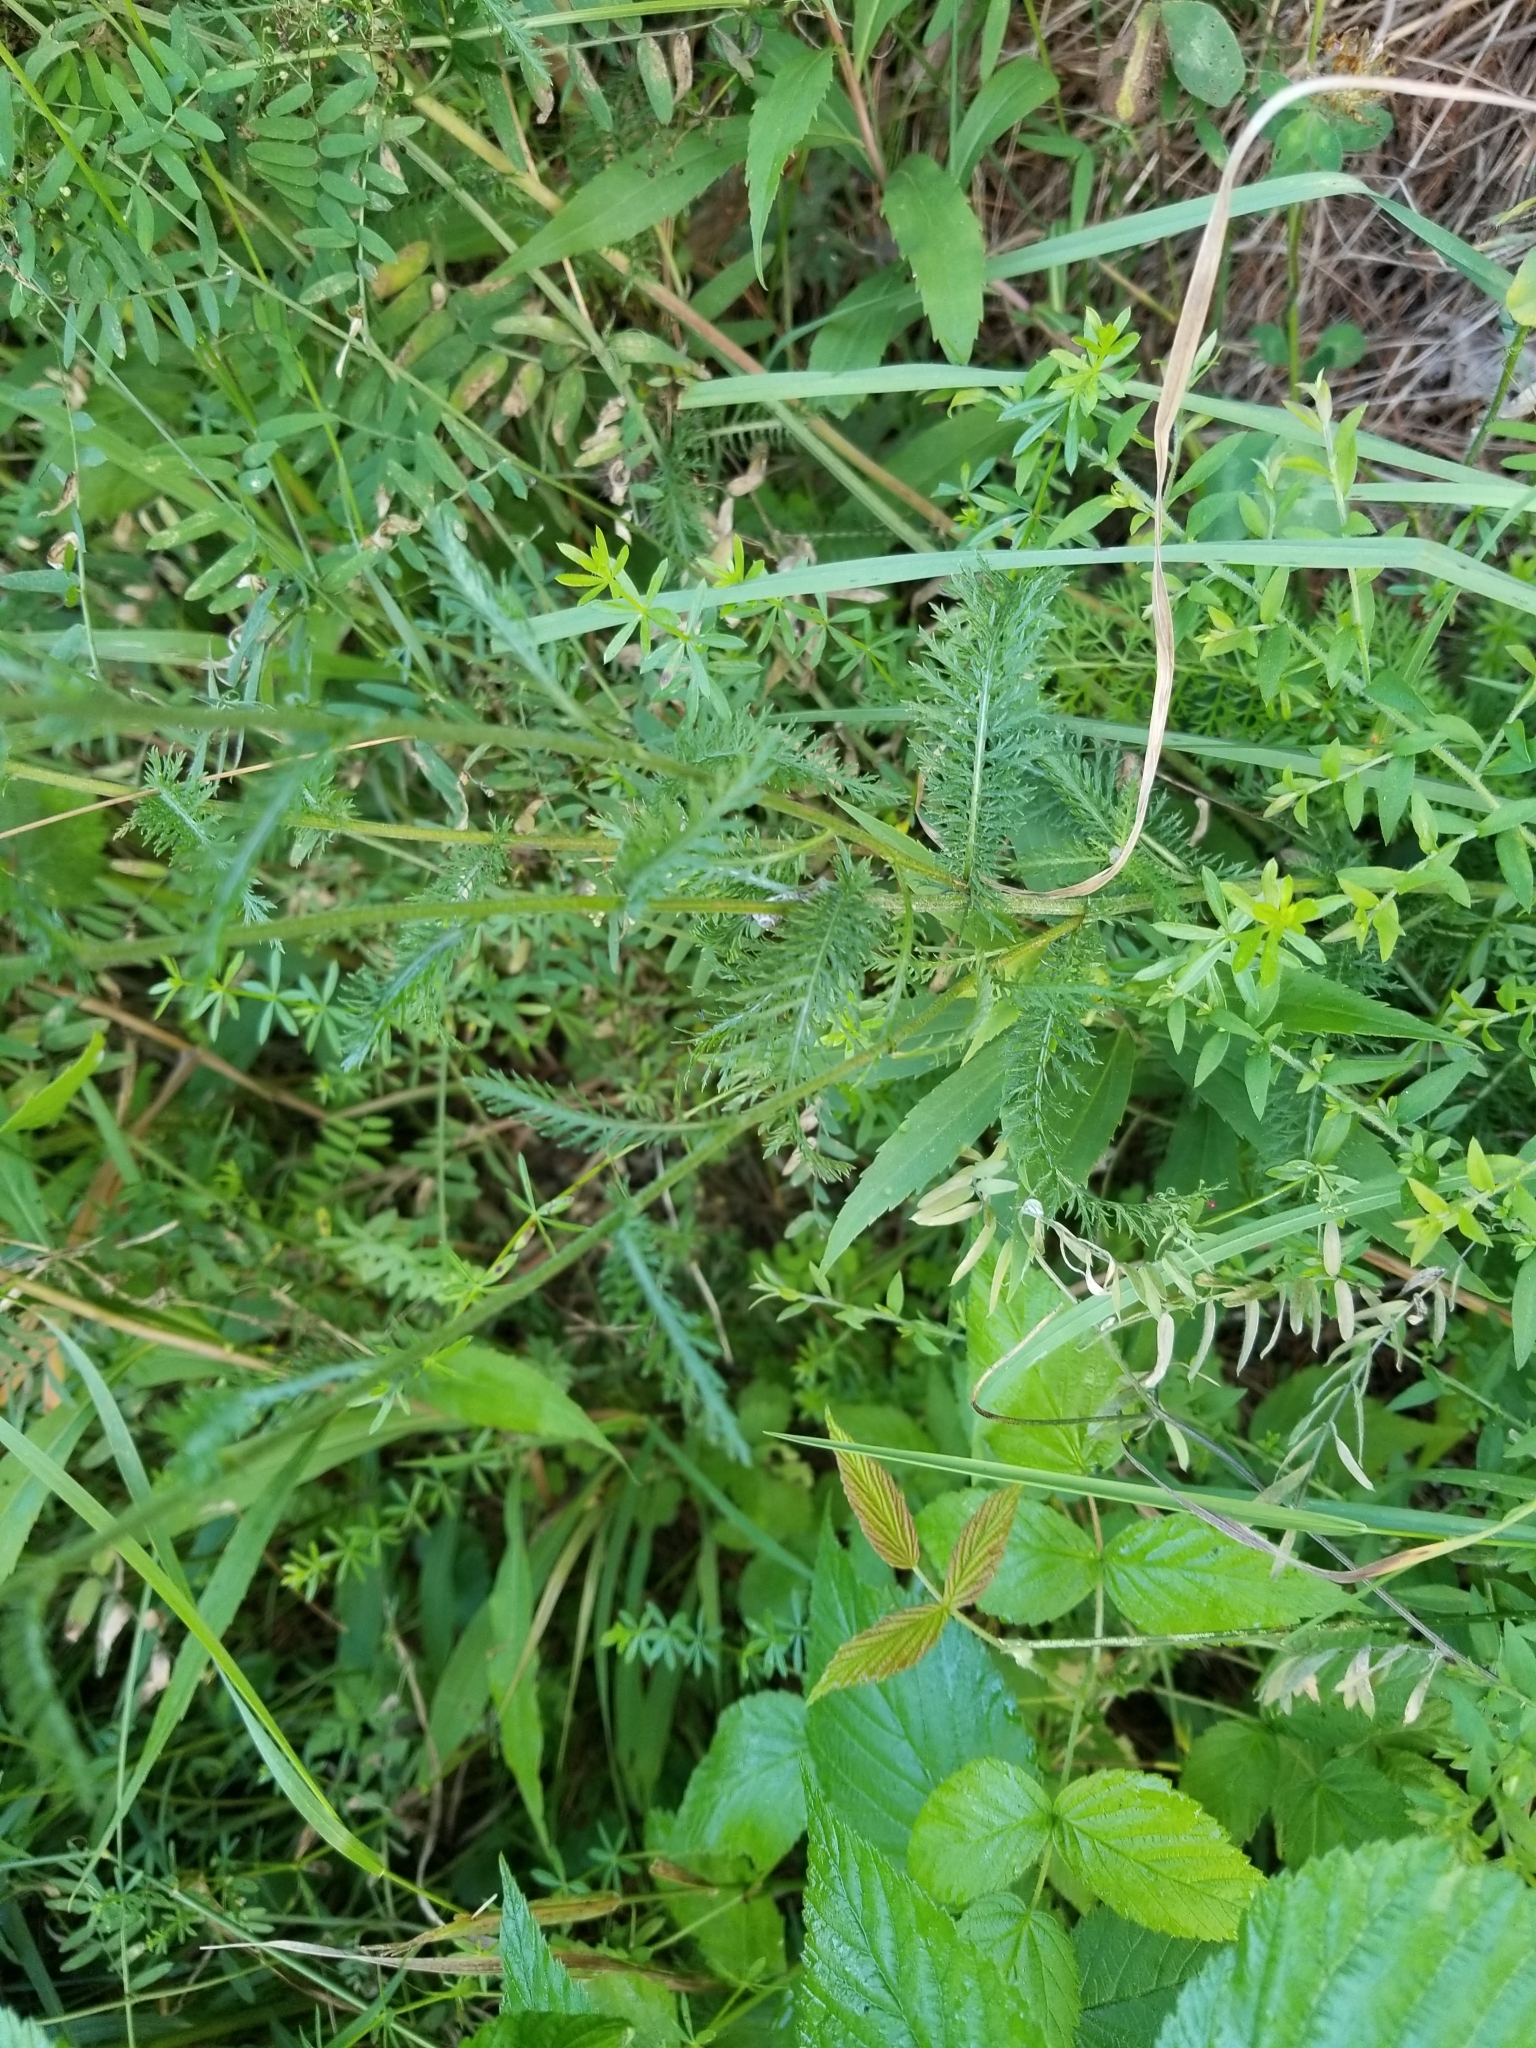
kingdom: Plantae
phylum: Tracheophyta
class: Magnoliopsida
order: Asterales
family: Asteraceae
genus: Achillea
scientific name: Achillea millefolium
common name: Yarrow
